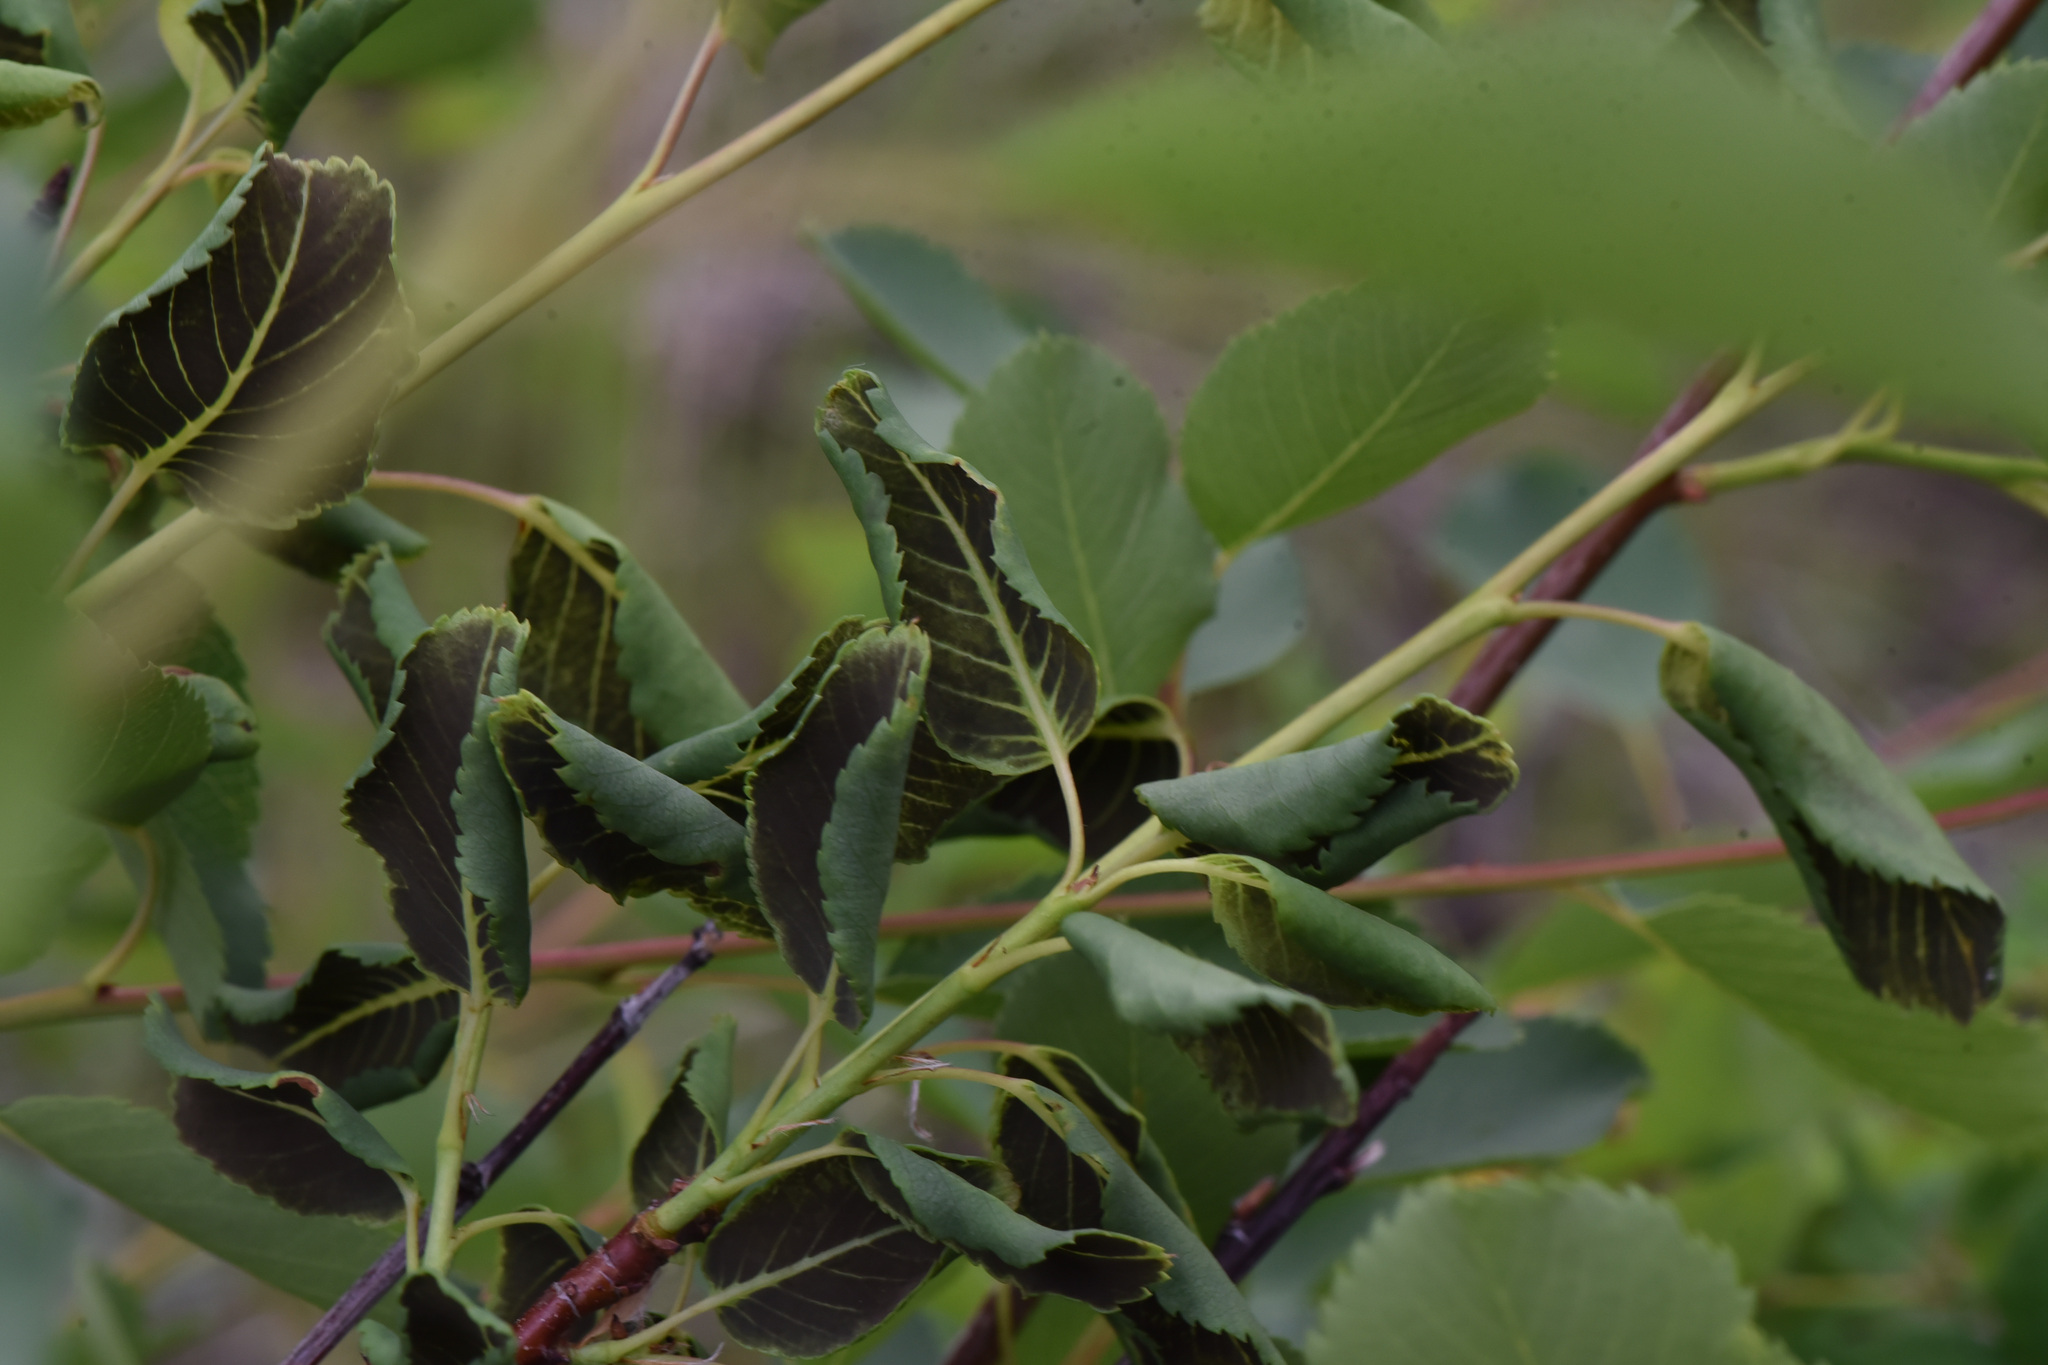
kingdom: Fungi
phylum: Ascomycota
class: Dothideomycetes
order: Venturiales
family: Venturiaceae
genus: Apiosporina
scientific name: Apiosporina collinsii
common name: Black leaf
